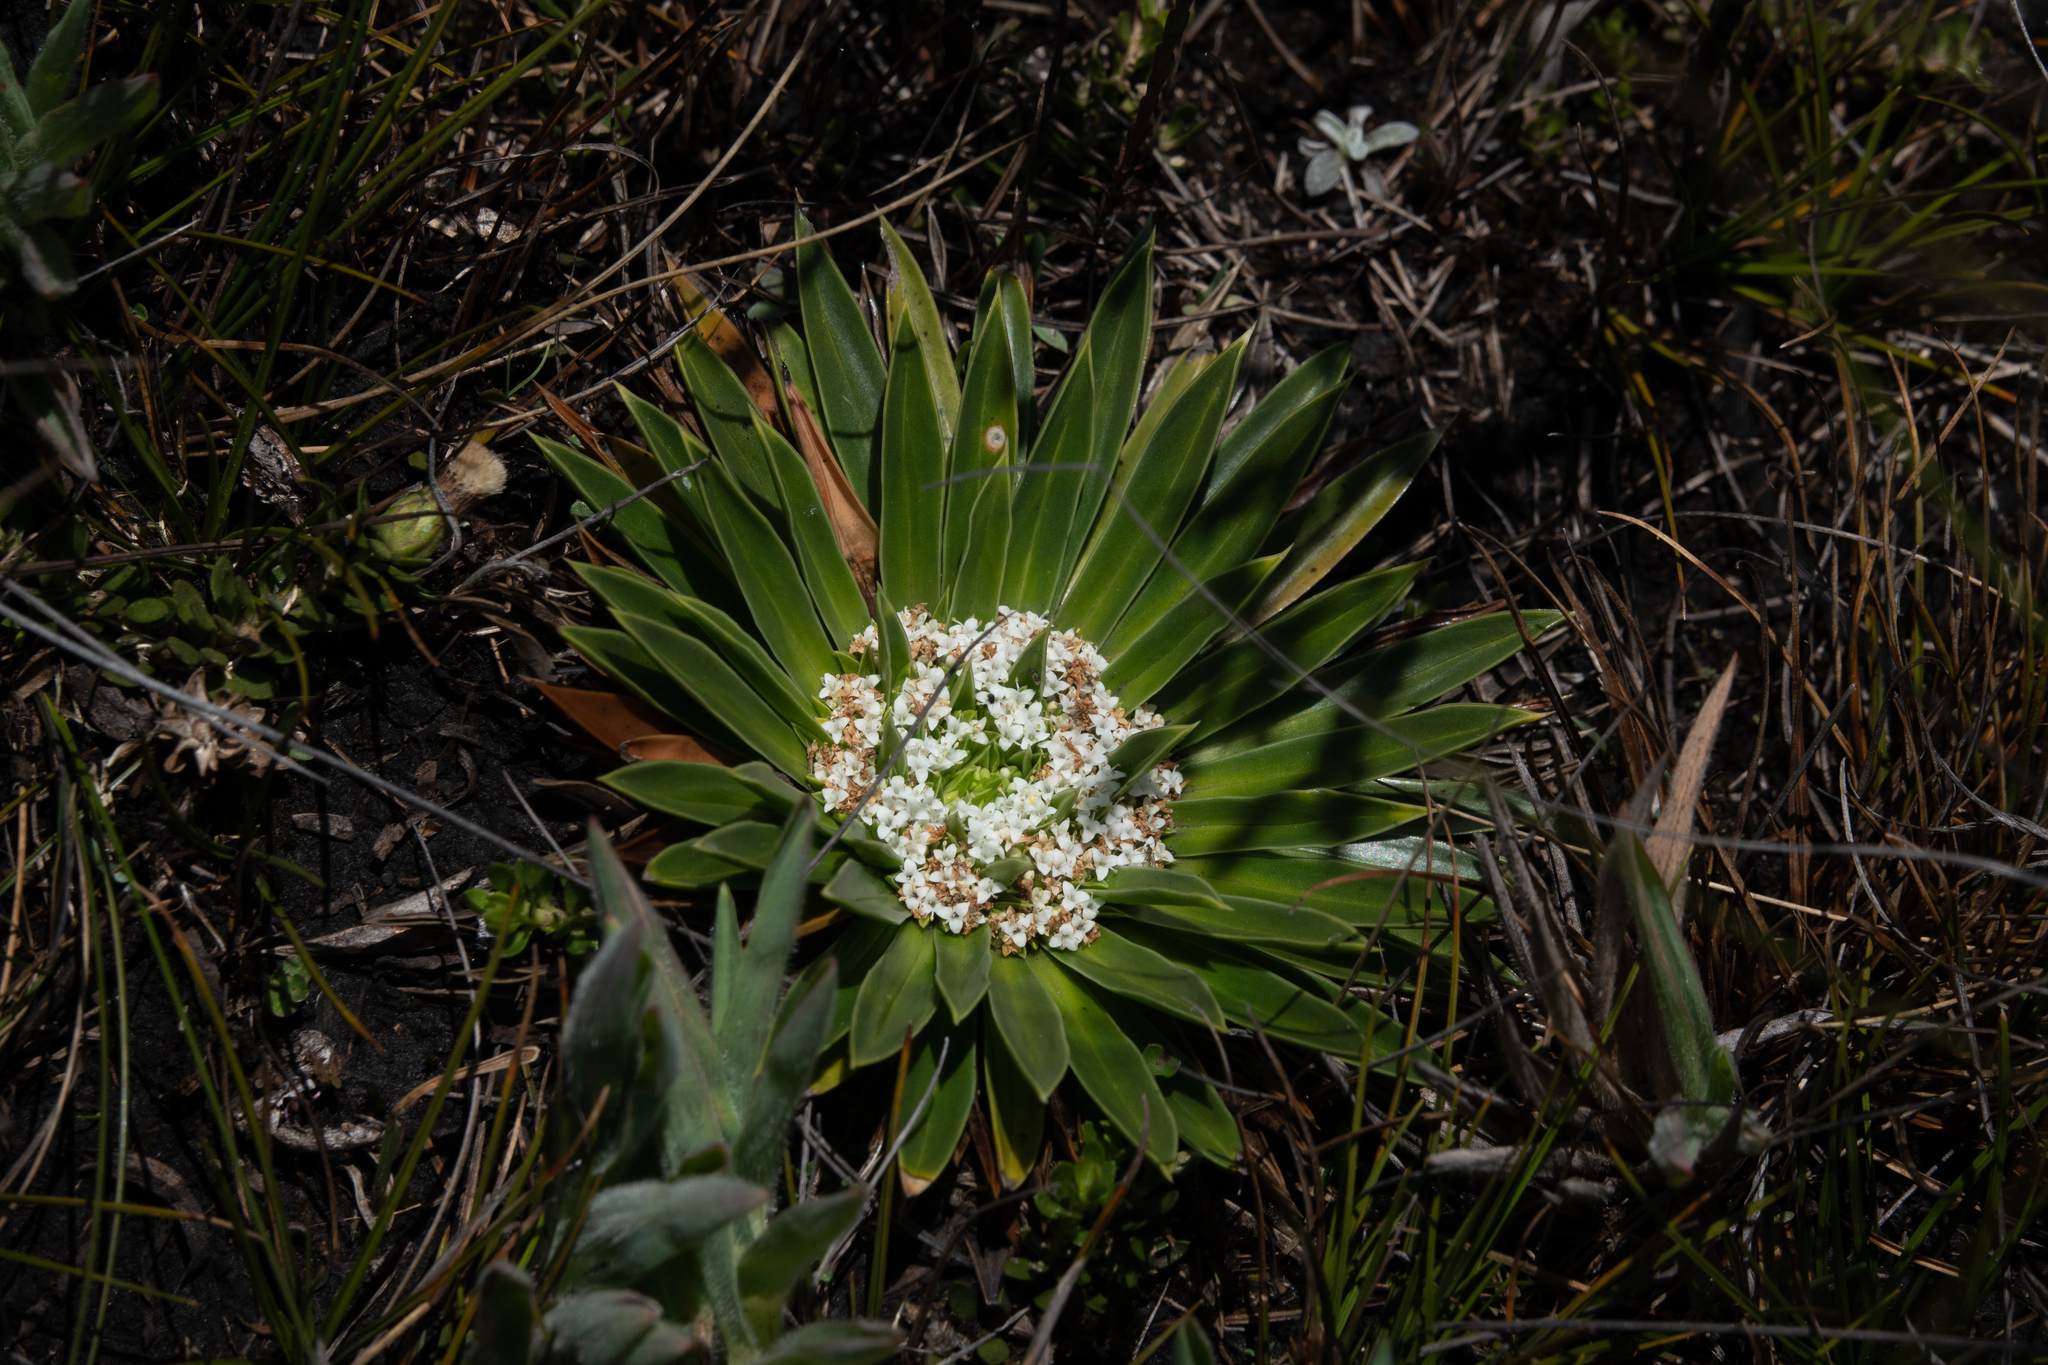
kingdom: Plantae
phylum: Tracheophyta
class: Magnoliopsida
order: Dipsacales
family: Caprifoliaceae
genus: Valeriana
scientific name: Valeriana rigida
